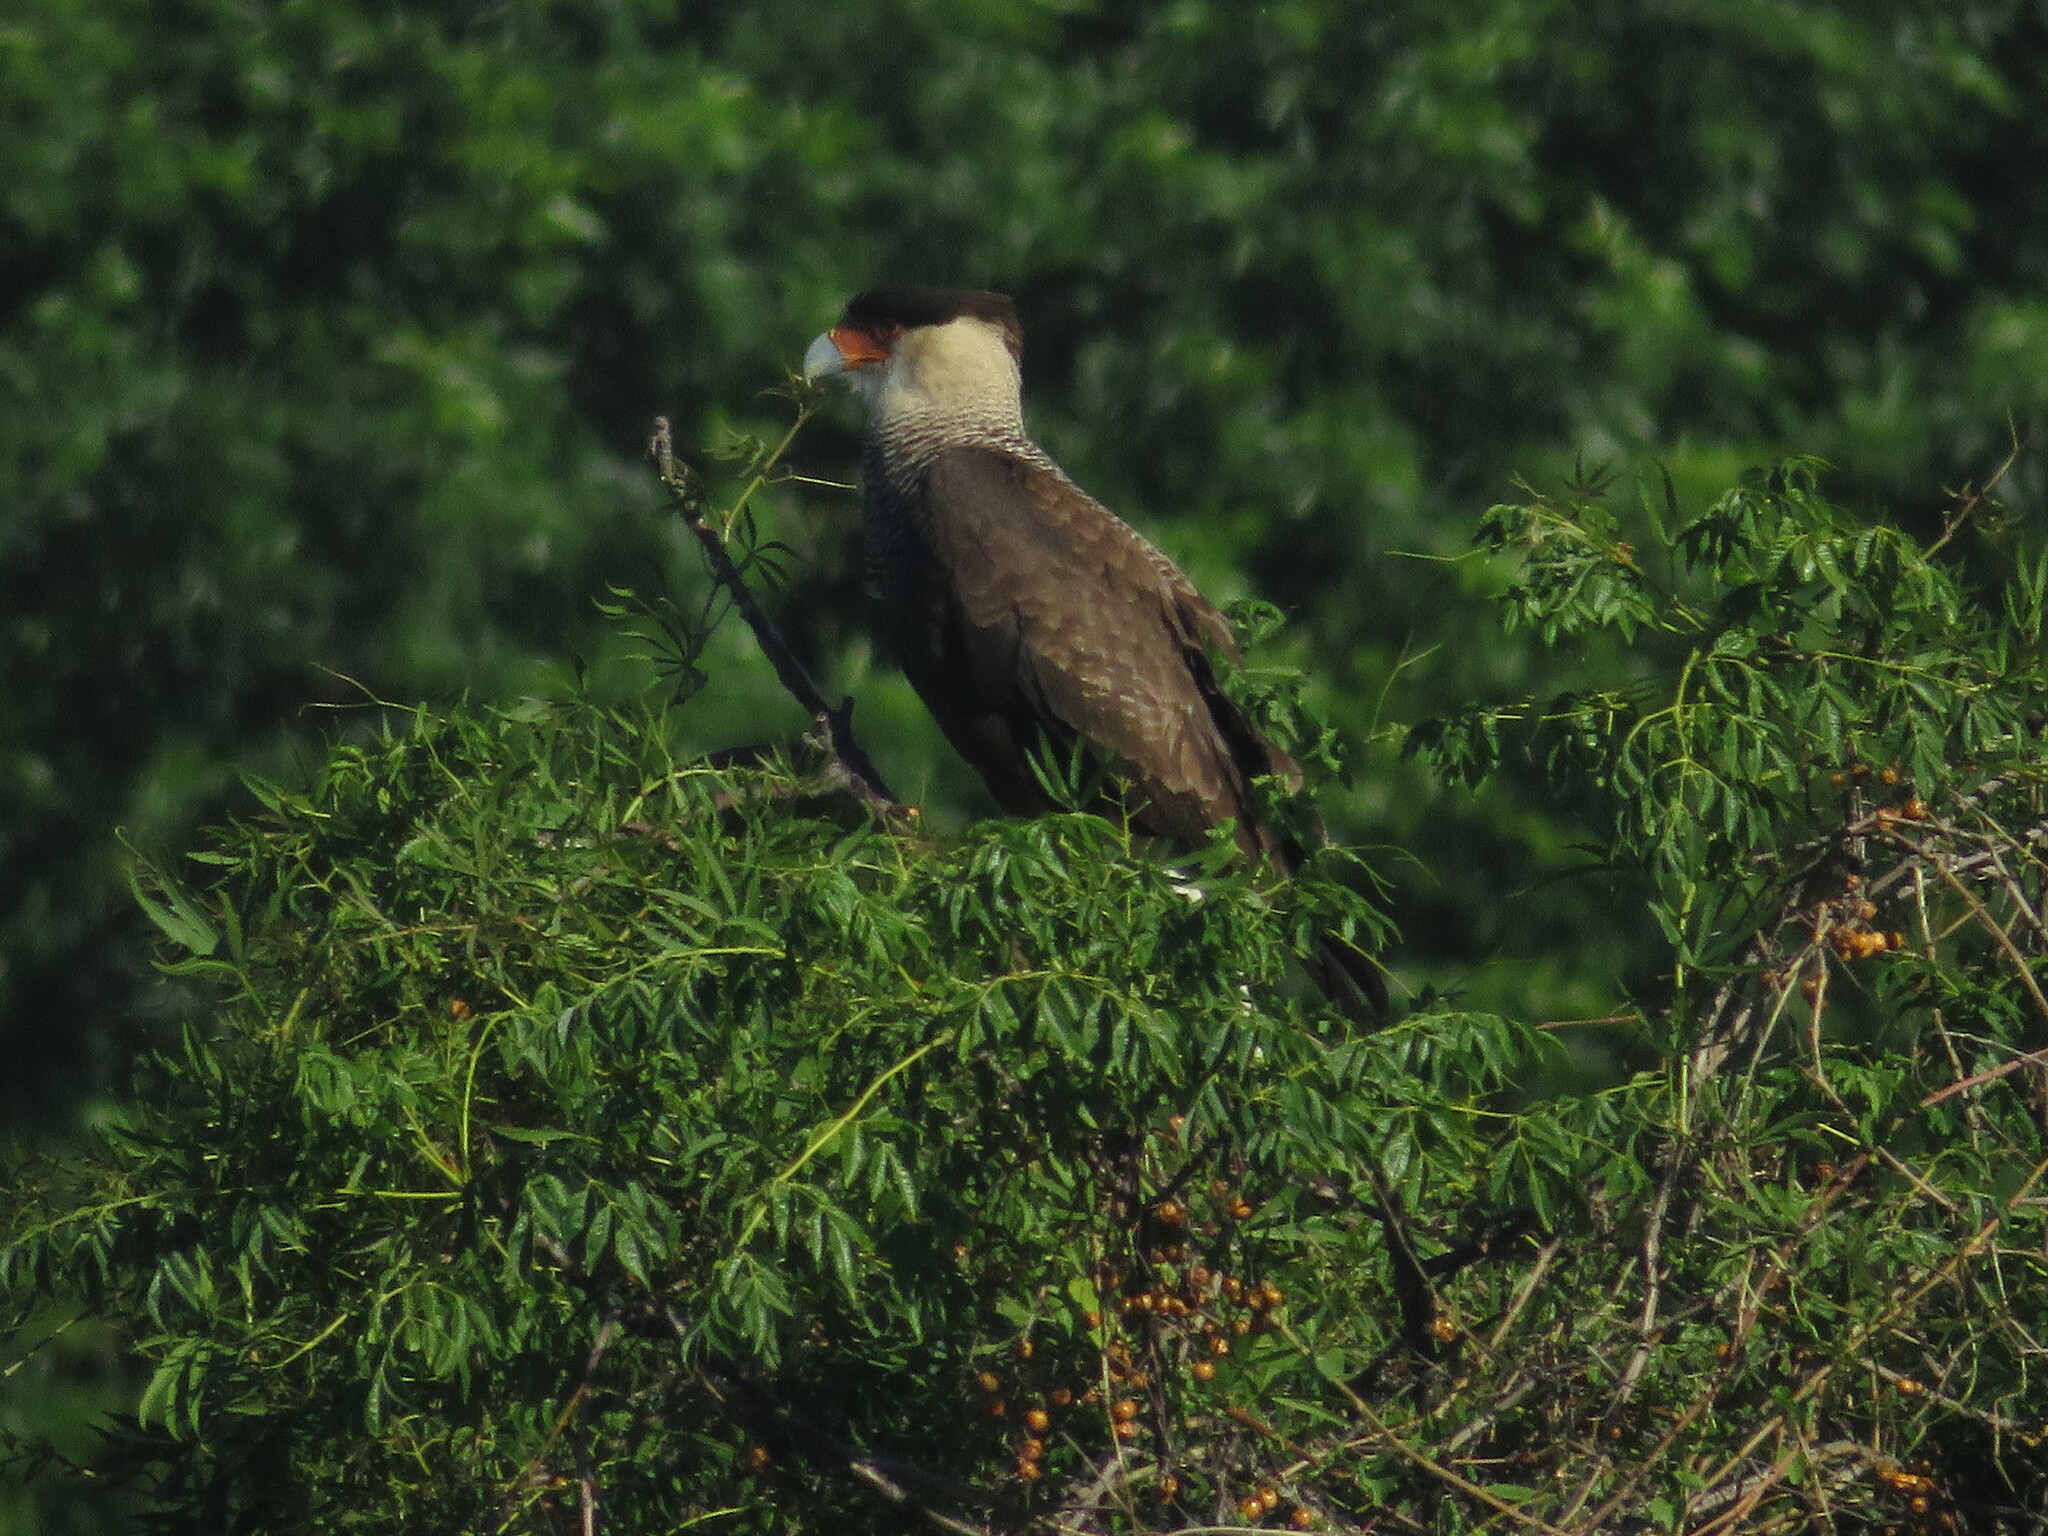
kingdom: Animalia
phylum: Chordata
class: Aves
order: Falconiformes
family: Falconidae
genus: Caracara
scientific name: Caracara plancus
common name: Southern caracara
